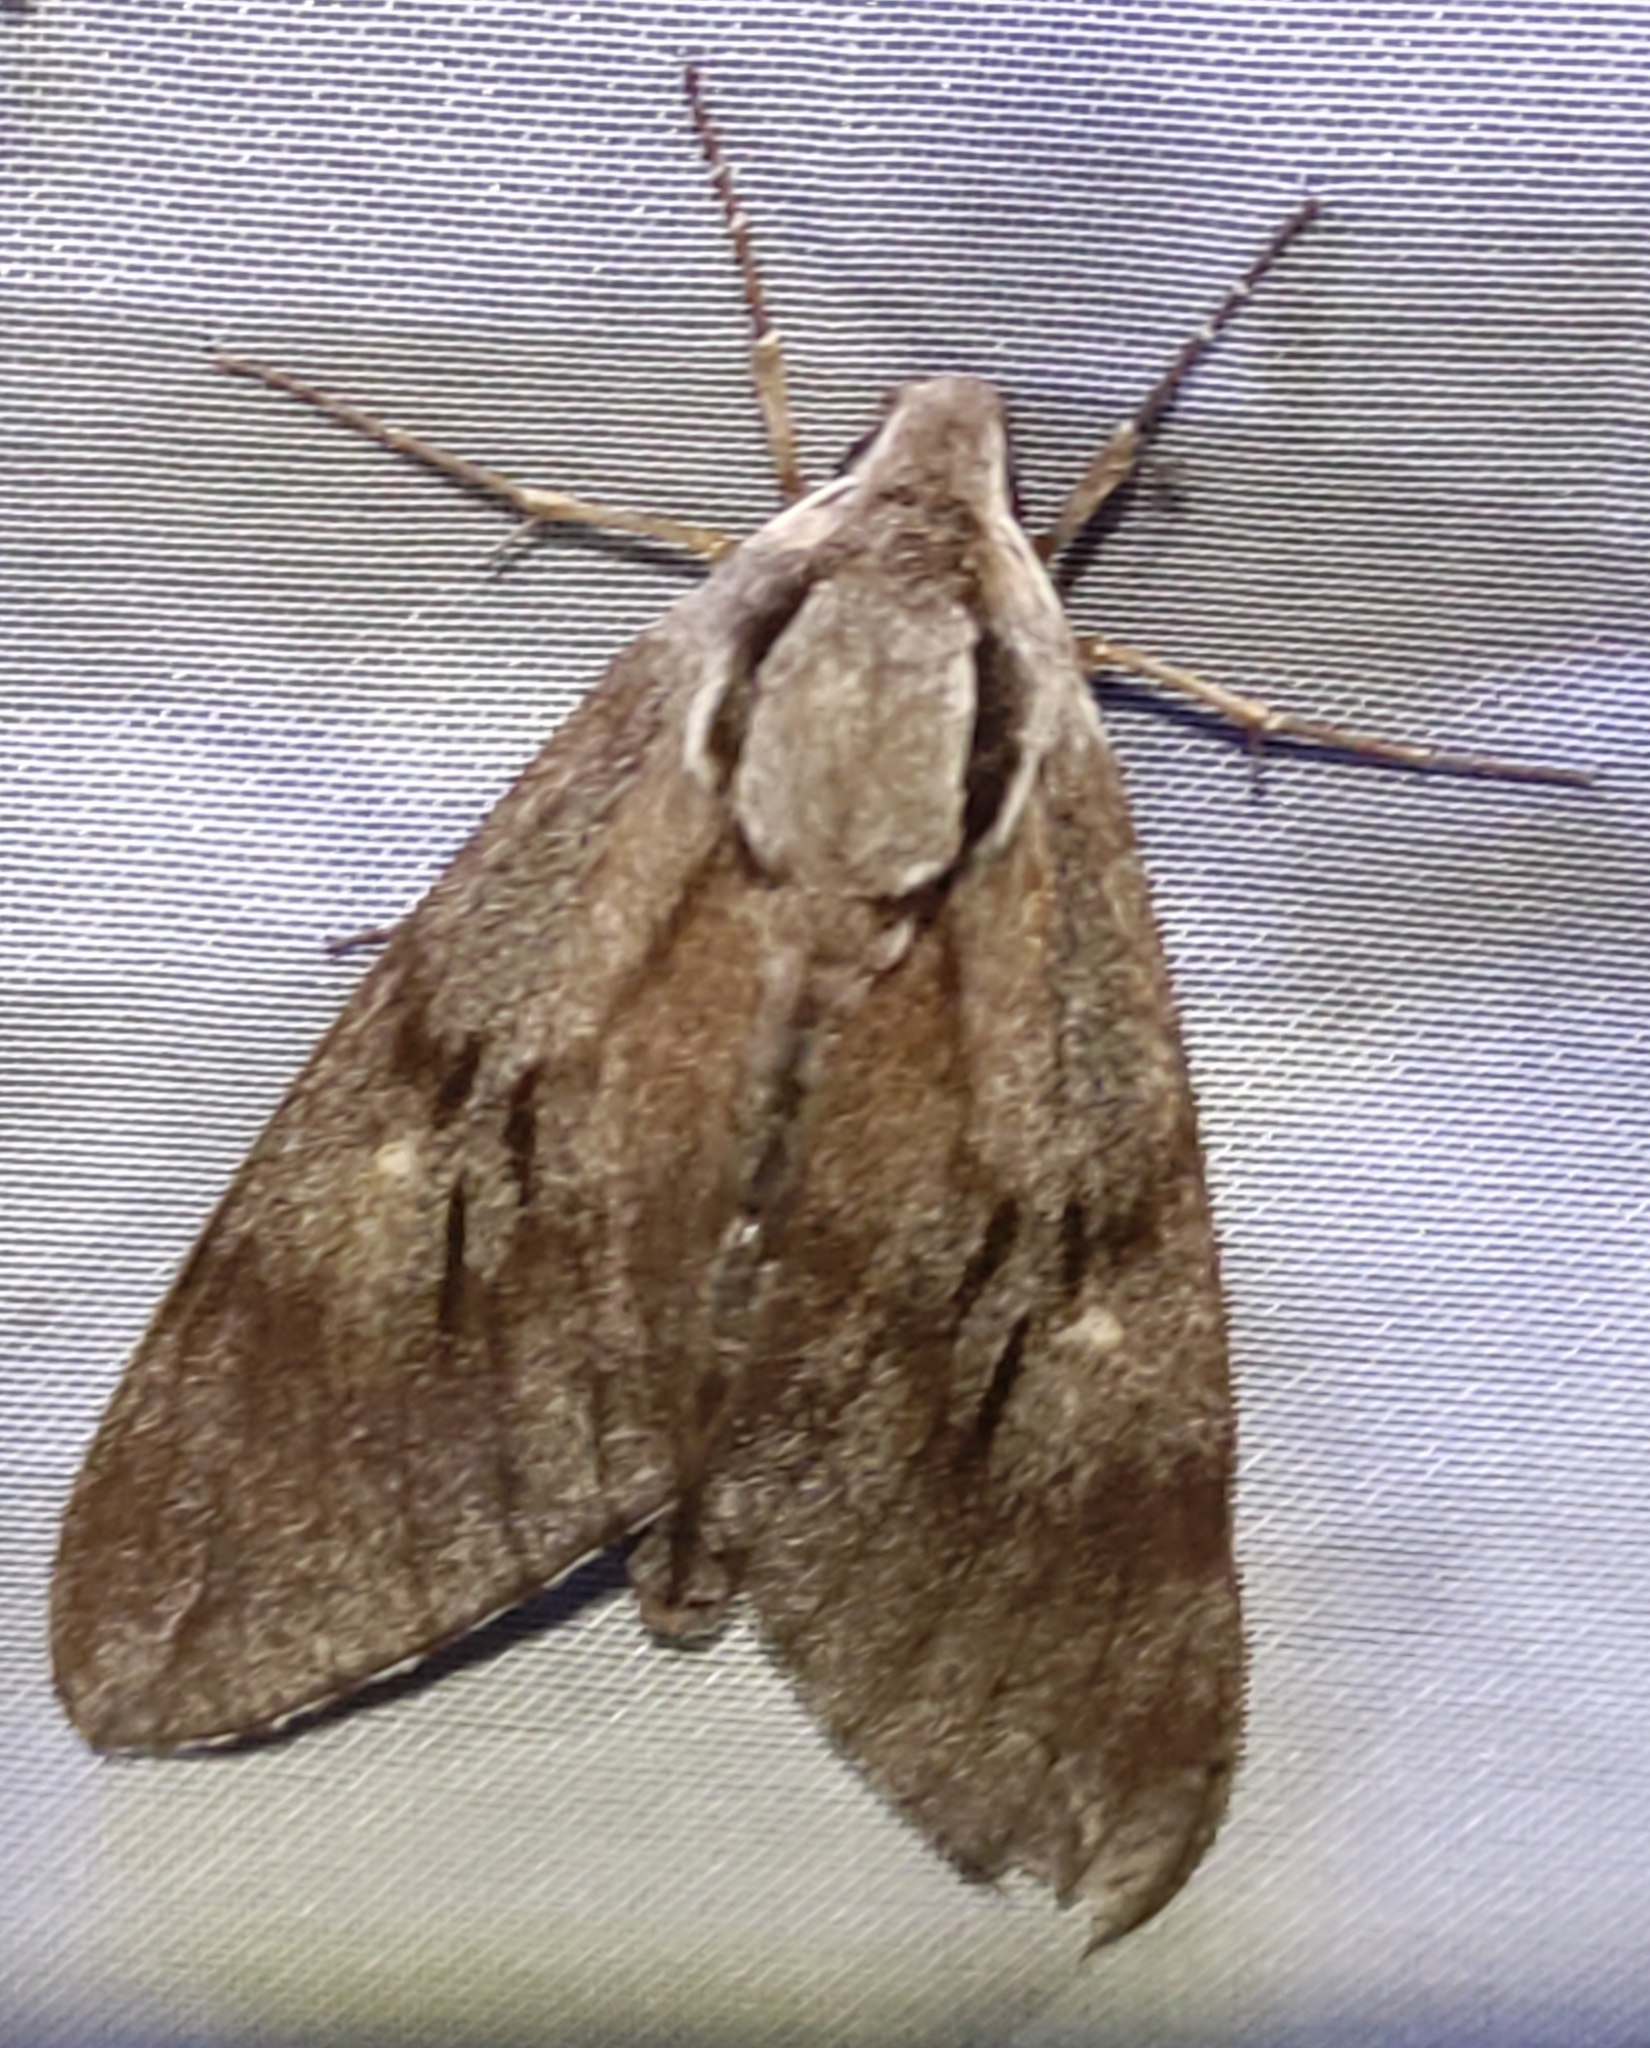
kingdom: Animalia
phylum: Arthropoda
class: Insecta
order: Lepidoptera
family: Sphingidae
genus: Sphinx
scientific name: Sphinx pinastri
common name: Pine hawk-moth
